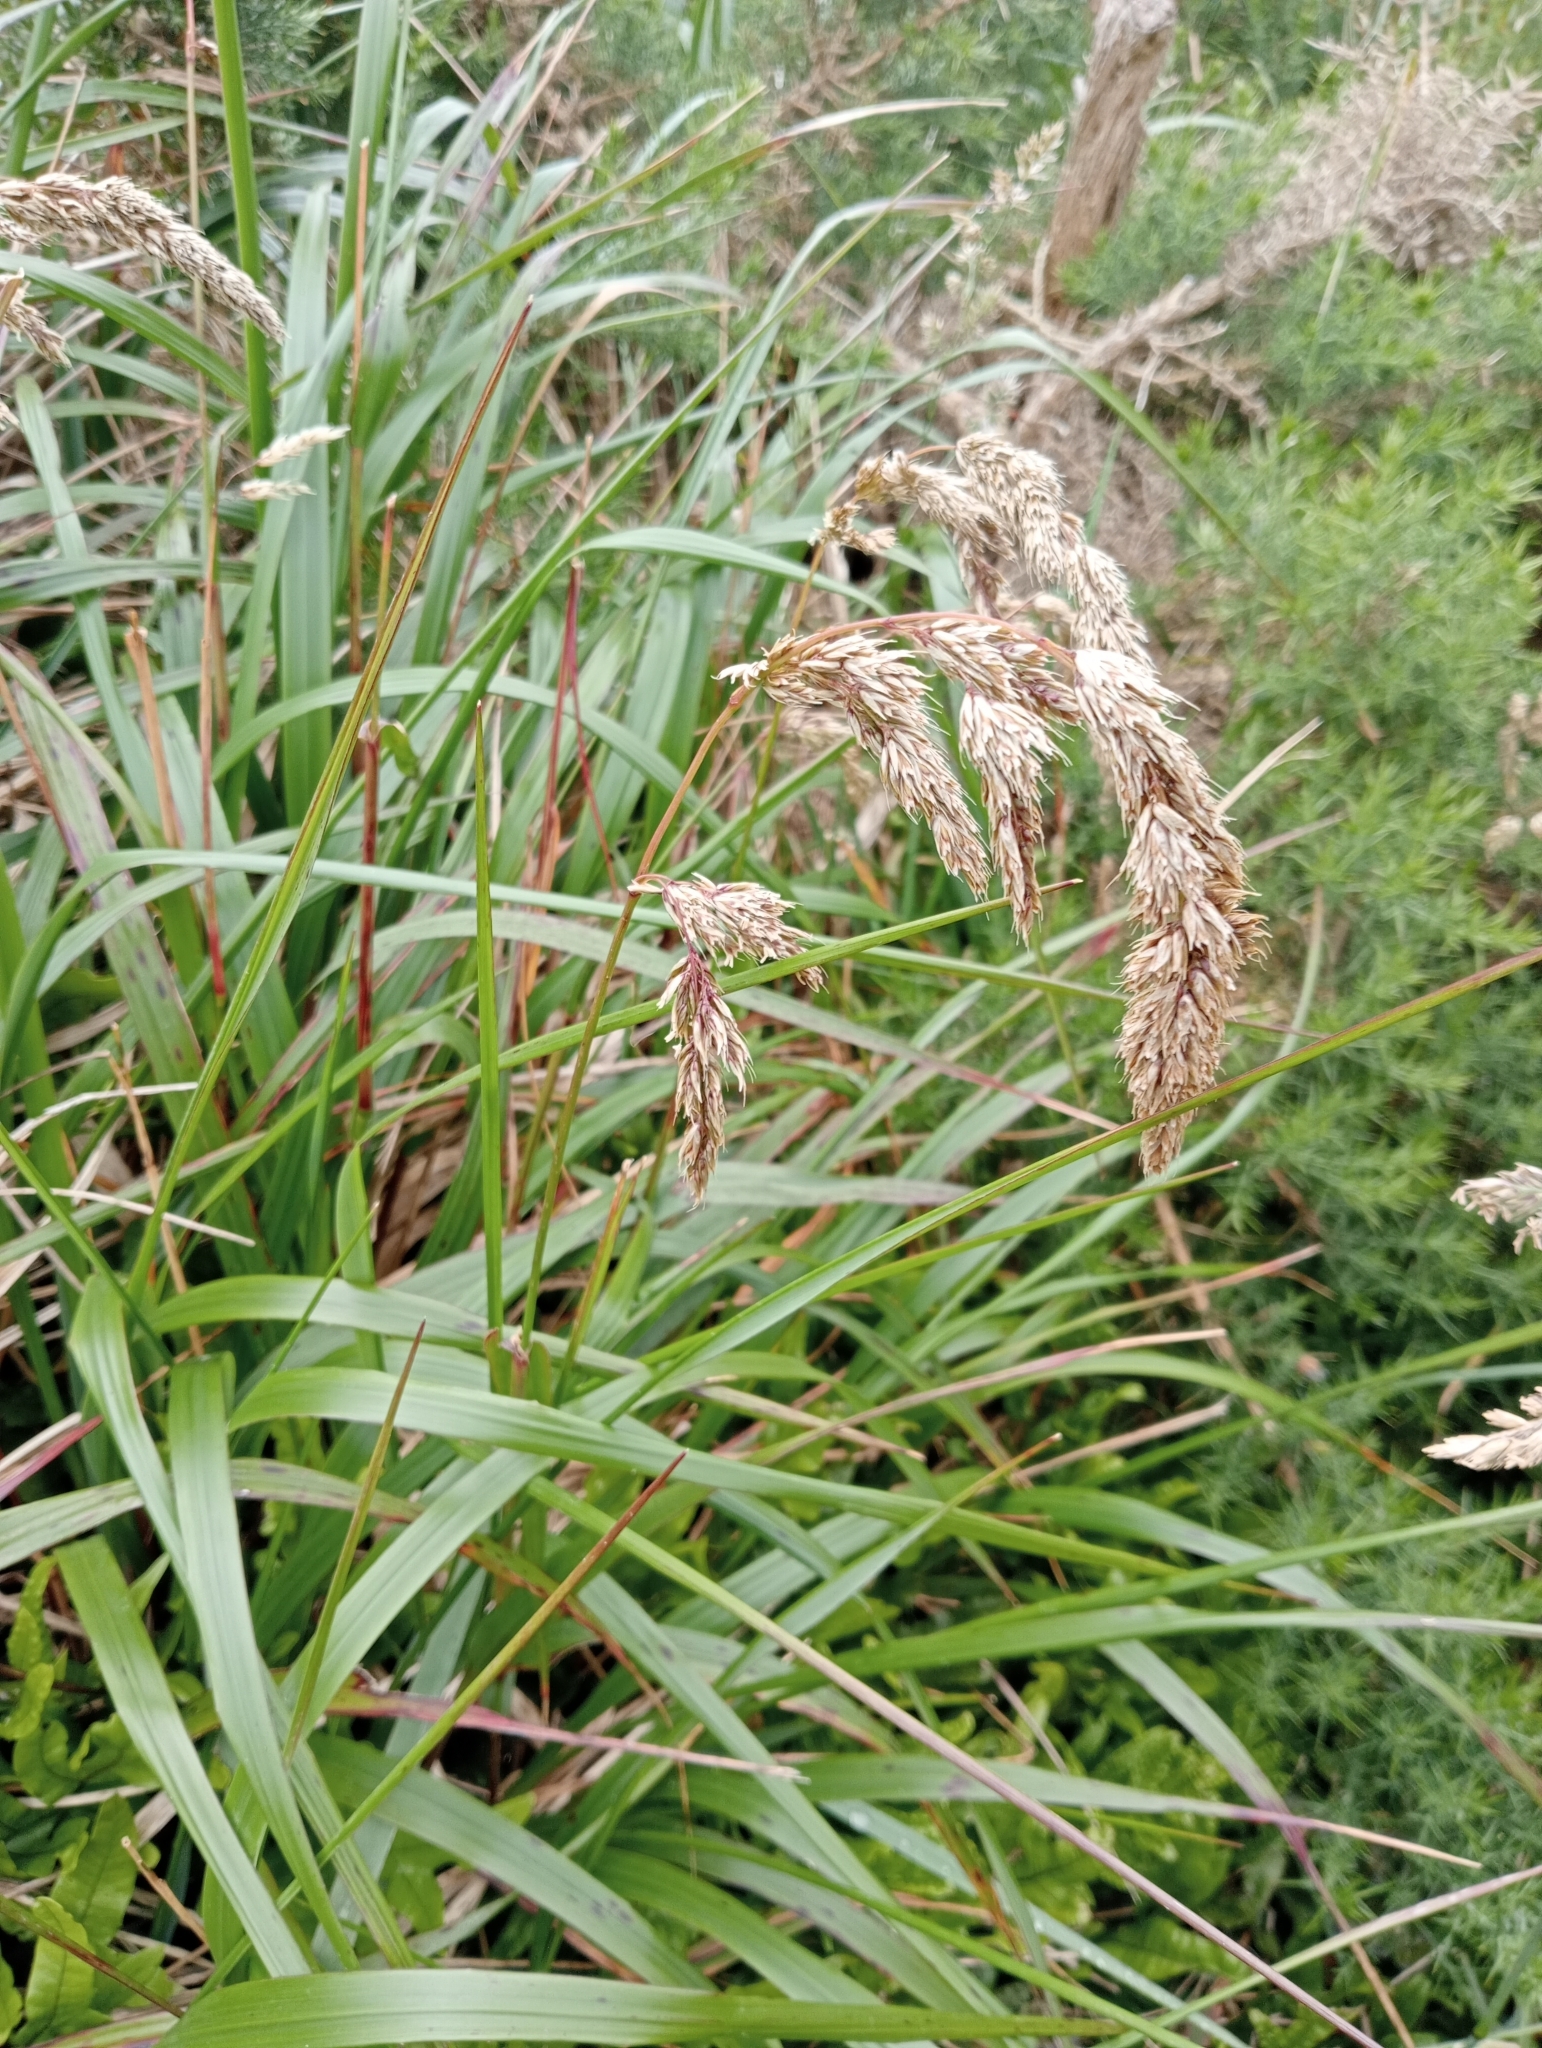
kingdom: Plantae
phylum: Tracheophyta
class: Liliopsida
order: Poales
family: Poaceae
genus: Anthoxanthum
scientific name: Anthoxanthum redolens
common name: Sweet holy grass
